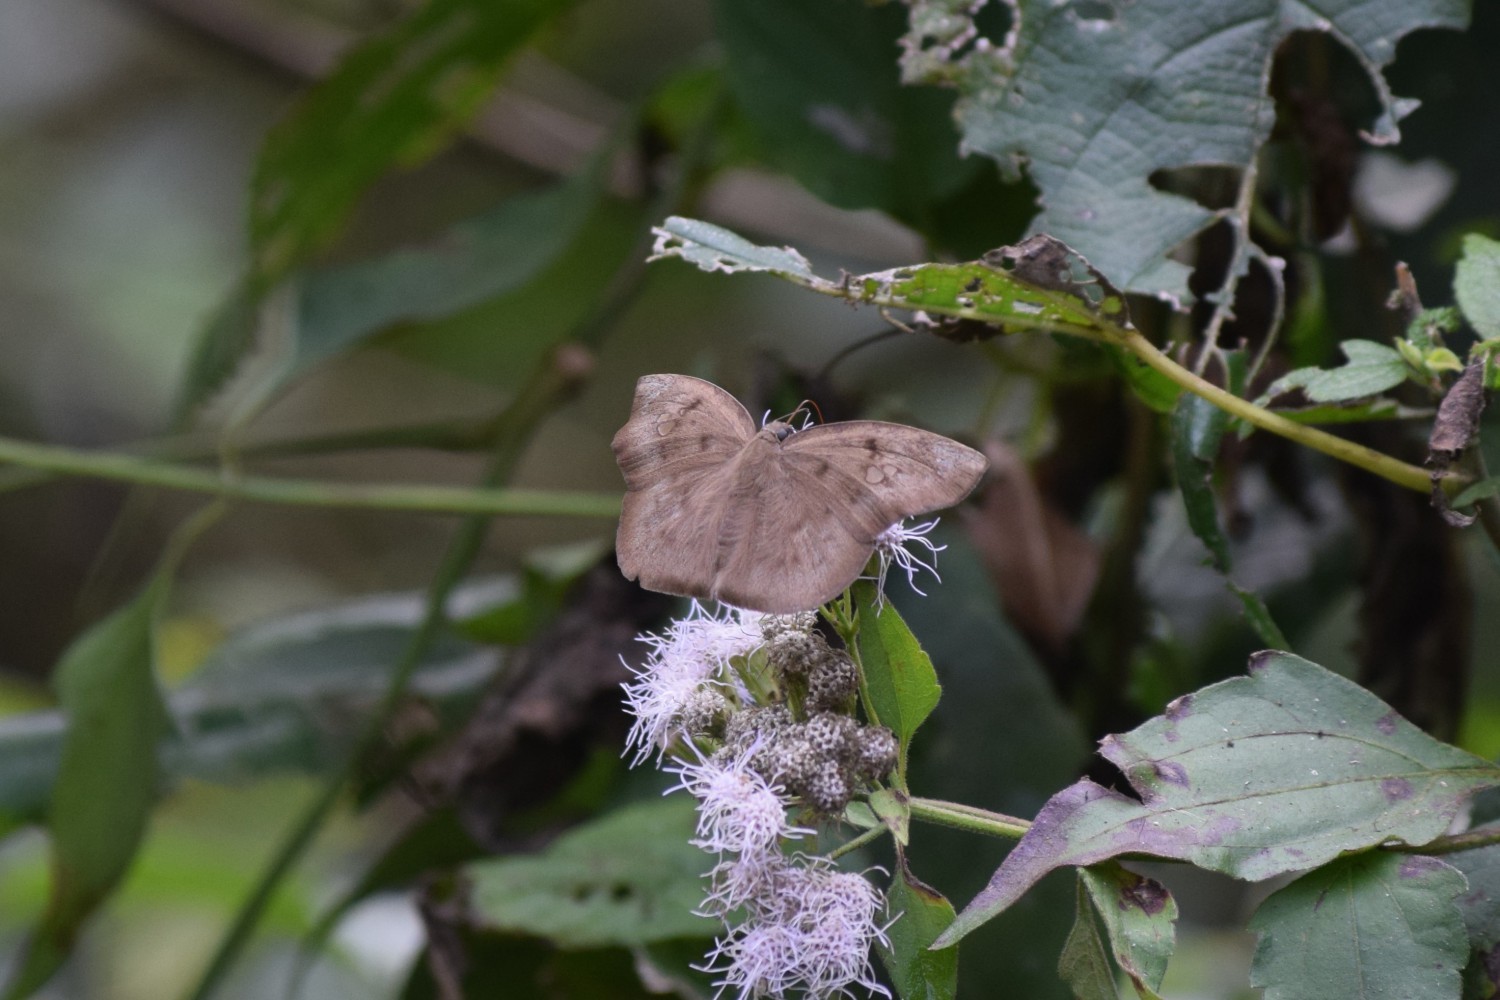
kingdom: Animalia
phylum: Arthropoda
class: Insecta
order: Lepidoptera
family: Hesperiidae
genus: Tagiades
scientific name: Tagiades japetus
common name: Pied flat
